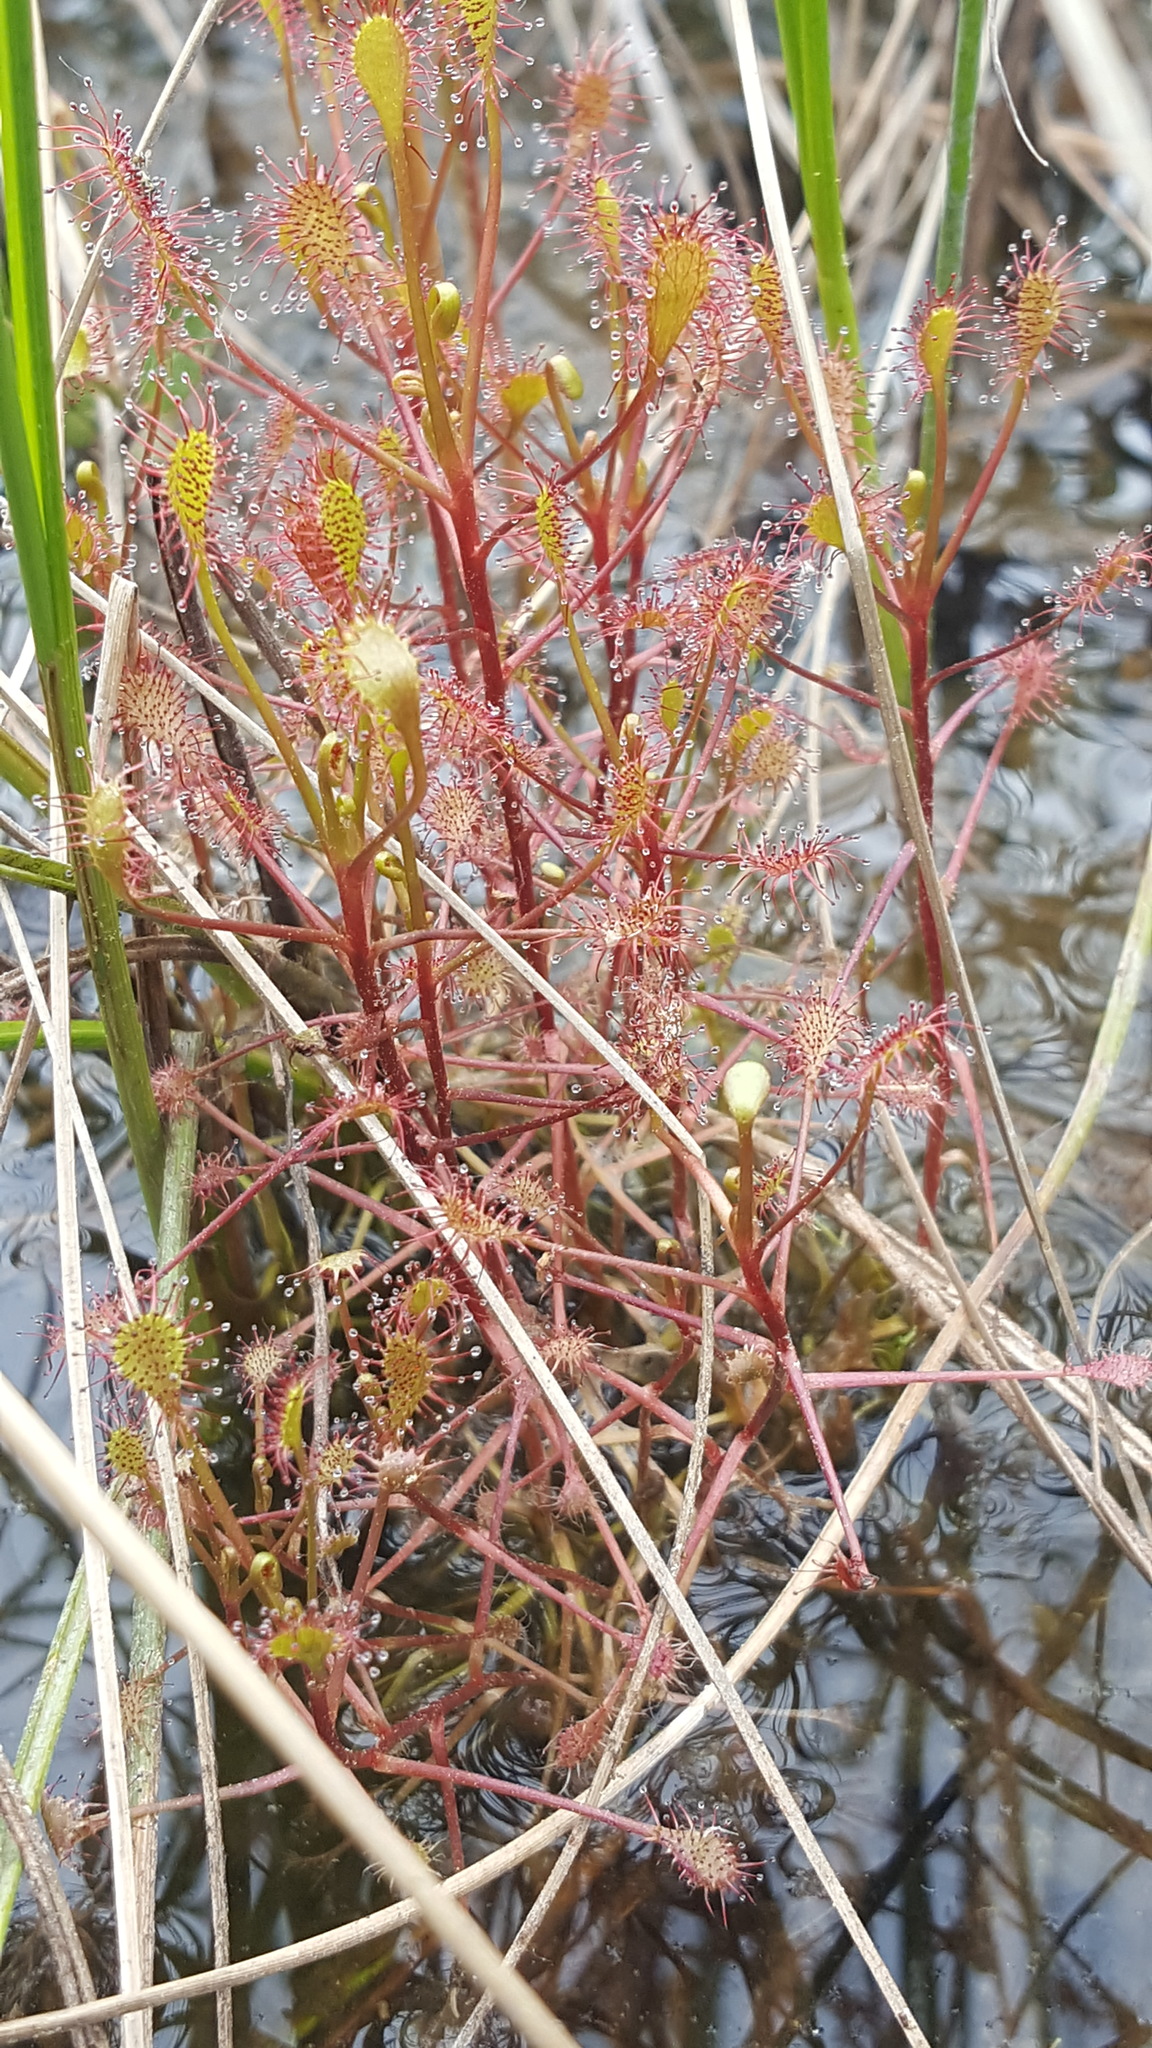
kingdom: Plantae
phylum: Tracheophyta
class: Magnoliopsida
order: Caryophyllales
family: Droseraceae
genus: Drosera
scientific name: Drosera intermedia
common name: Oblong-leaved sundew
